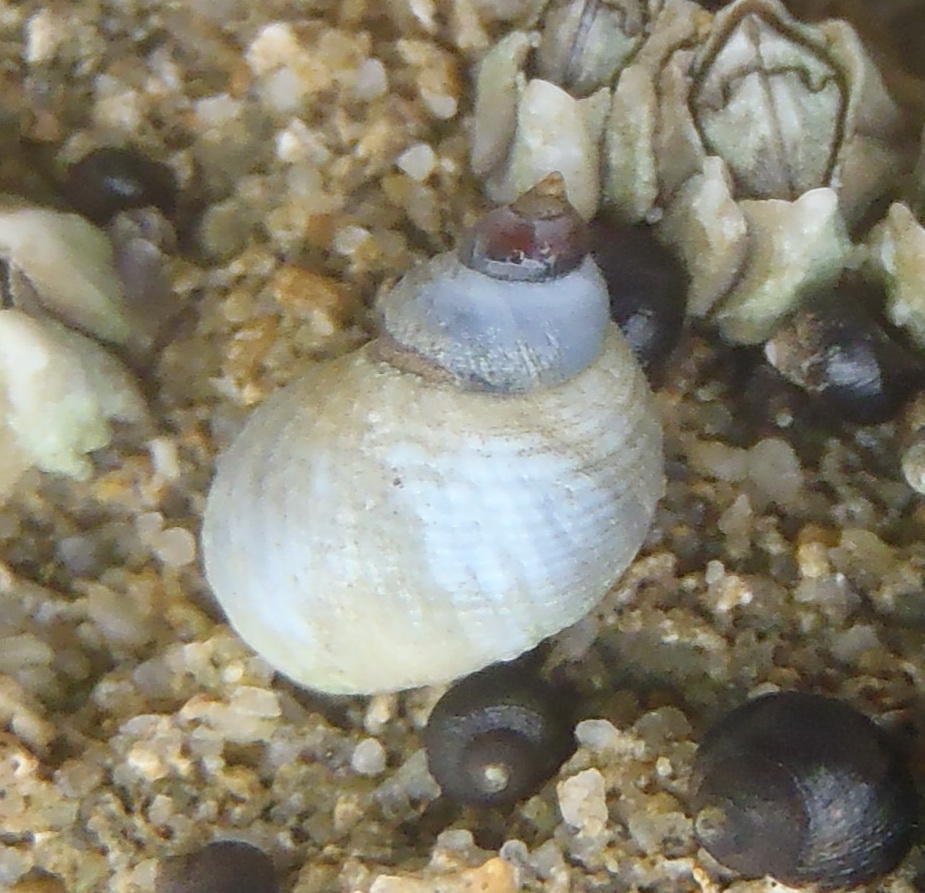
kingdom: Animalia
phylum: Mollusca
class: Gastropoda
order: Littorinimorpha
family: Littorinidae
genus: Afrolittorina
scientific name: Afrolittorina knysnaensis
